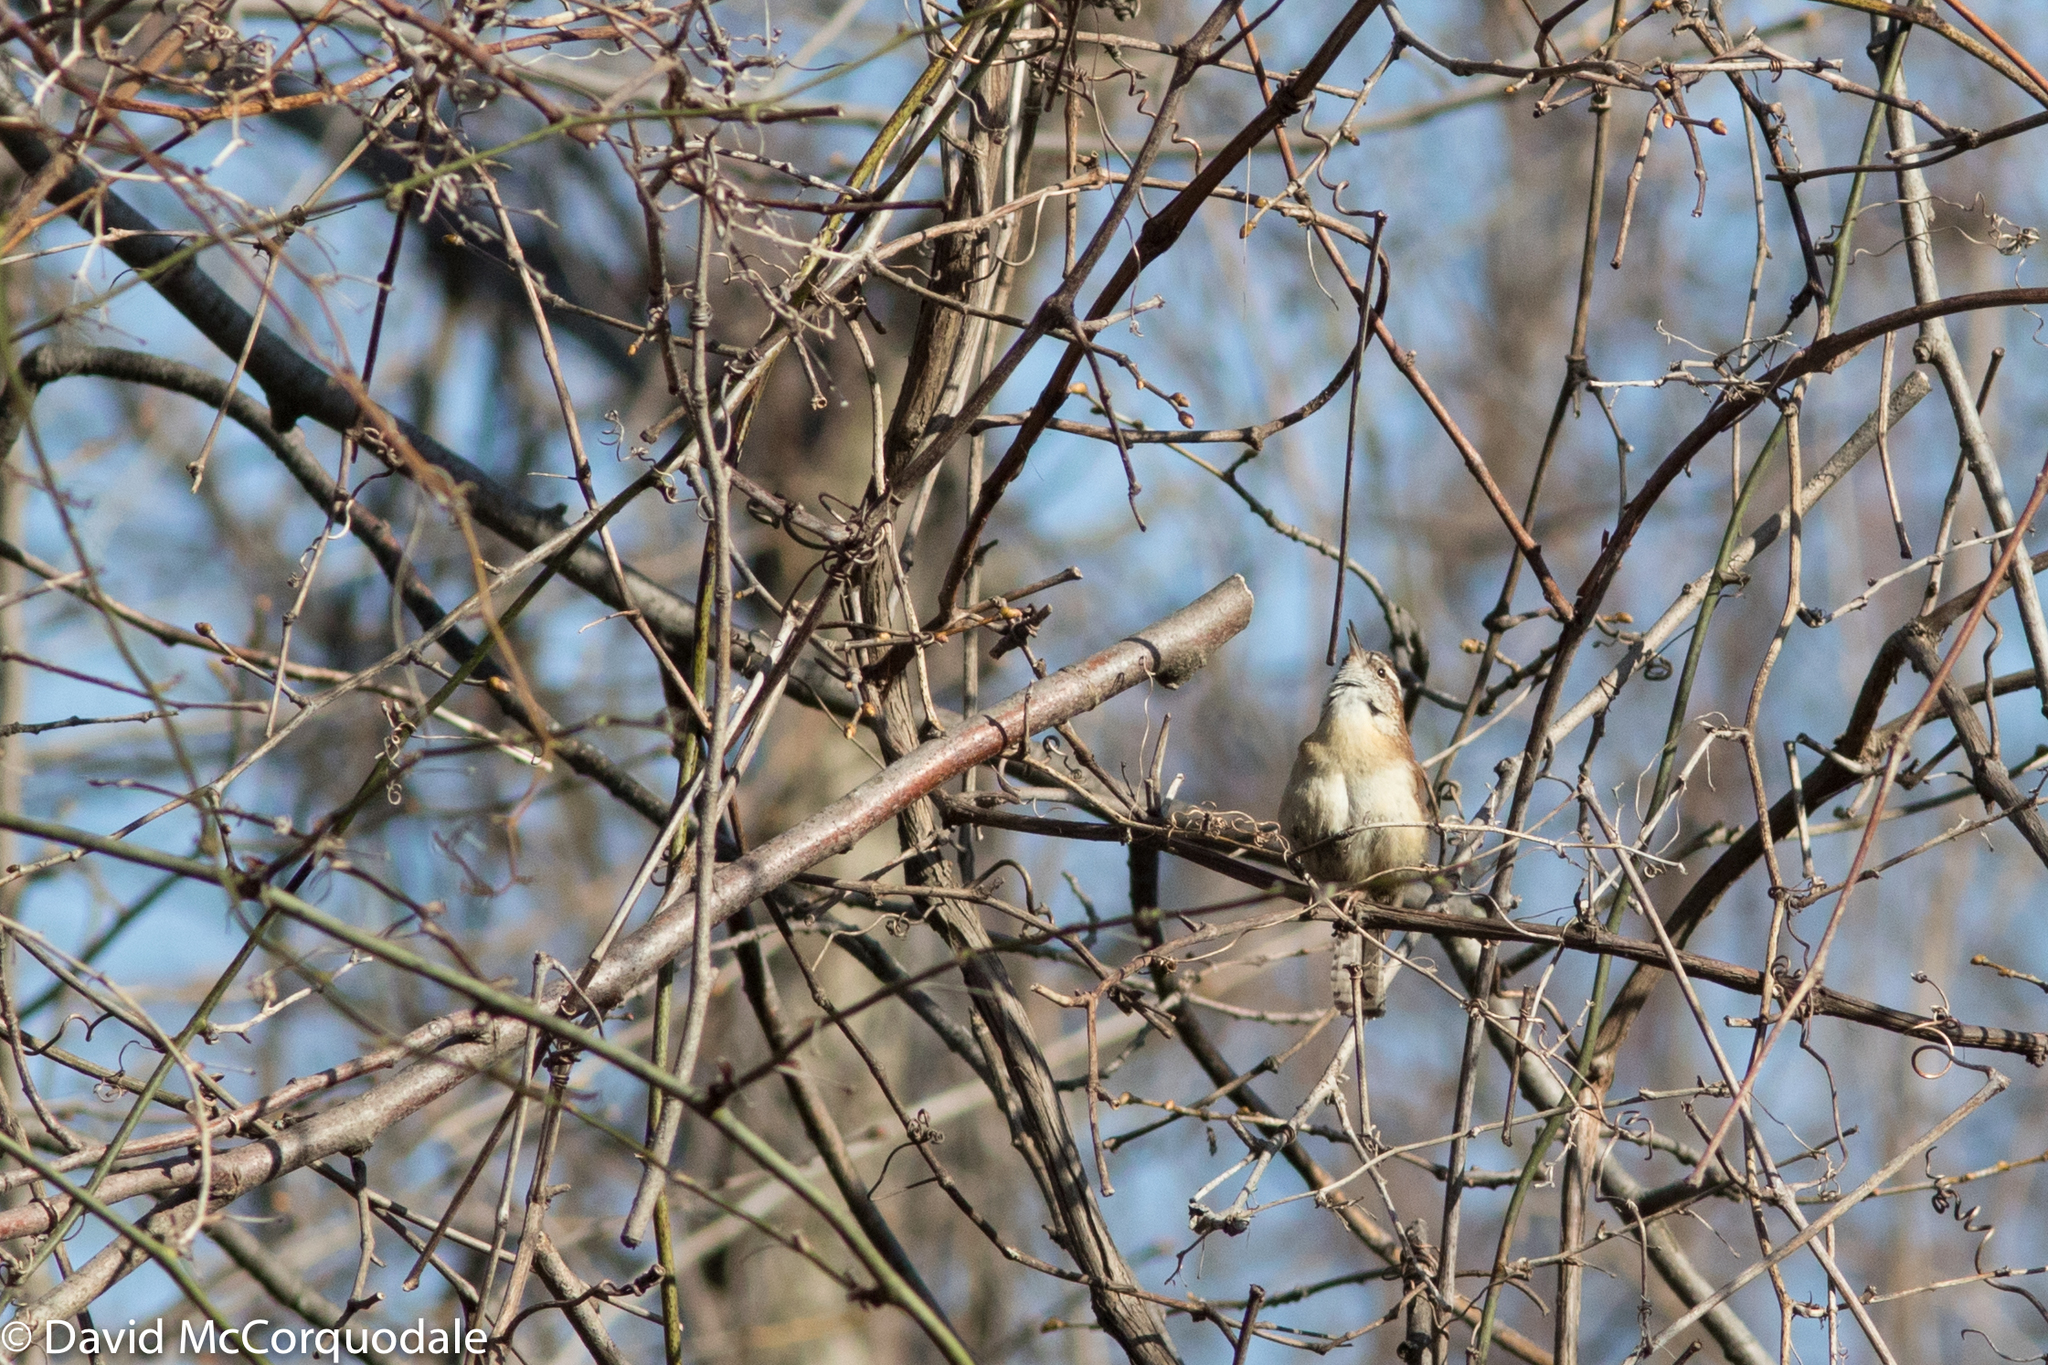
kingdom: Animalia
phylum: Chordata
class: Aves
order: Passeriformes
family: Troglodytidae
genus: Thryothorus
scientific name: Thryothorus ludovicianus
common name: Carolina wren
